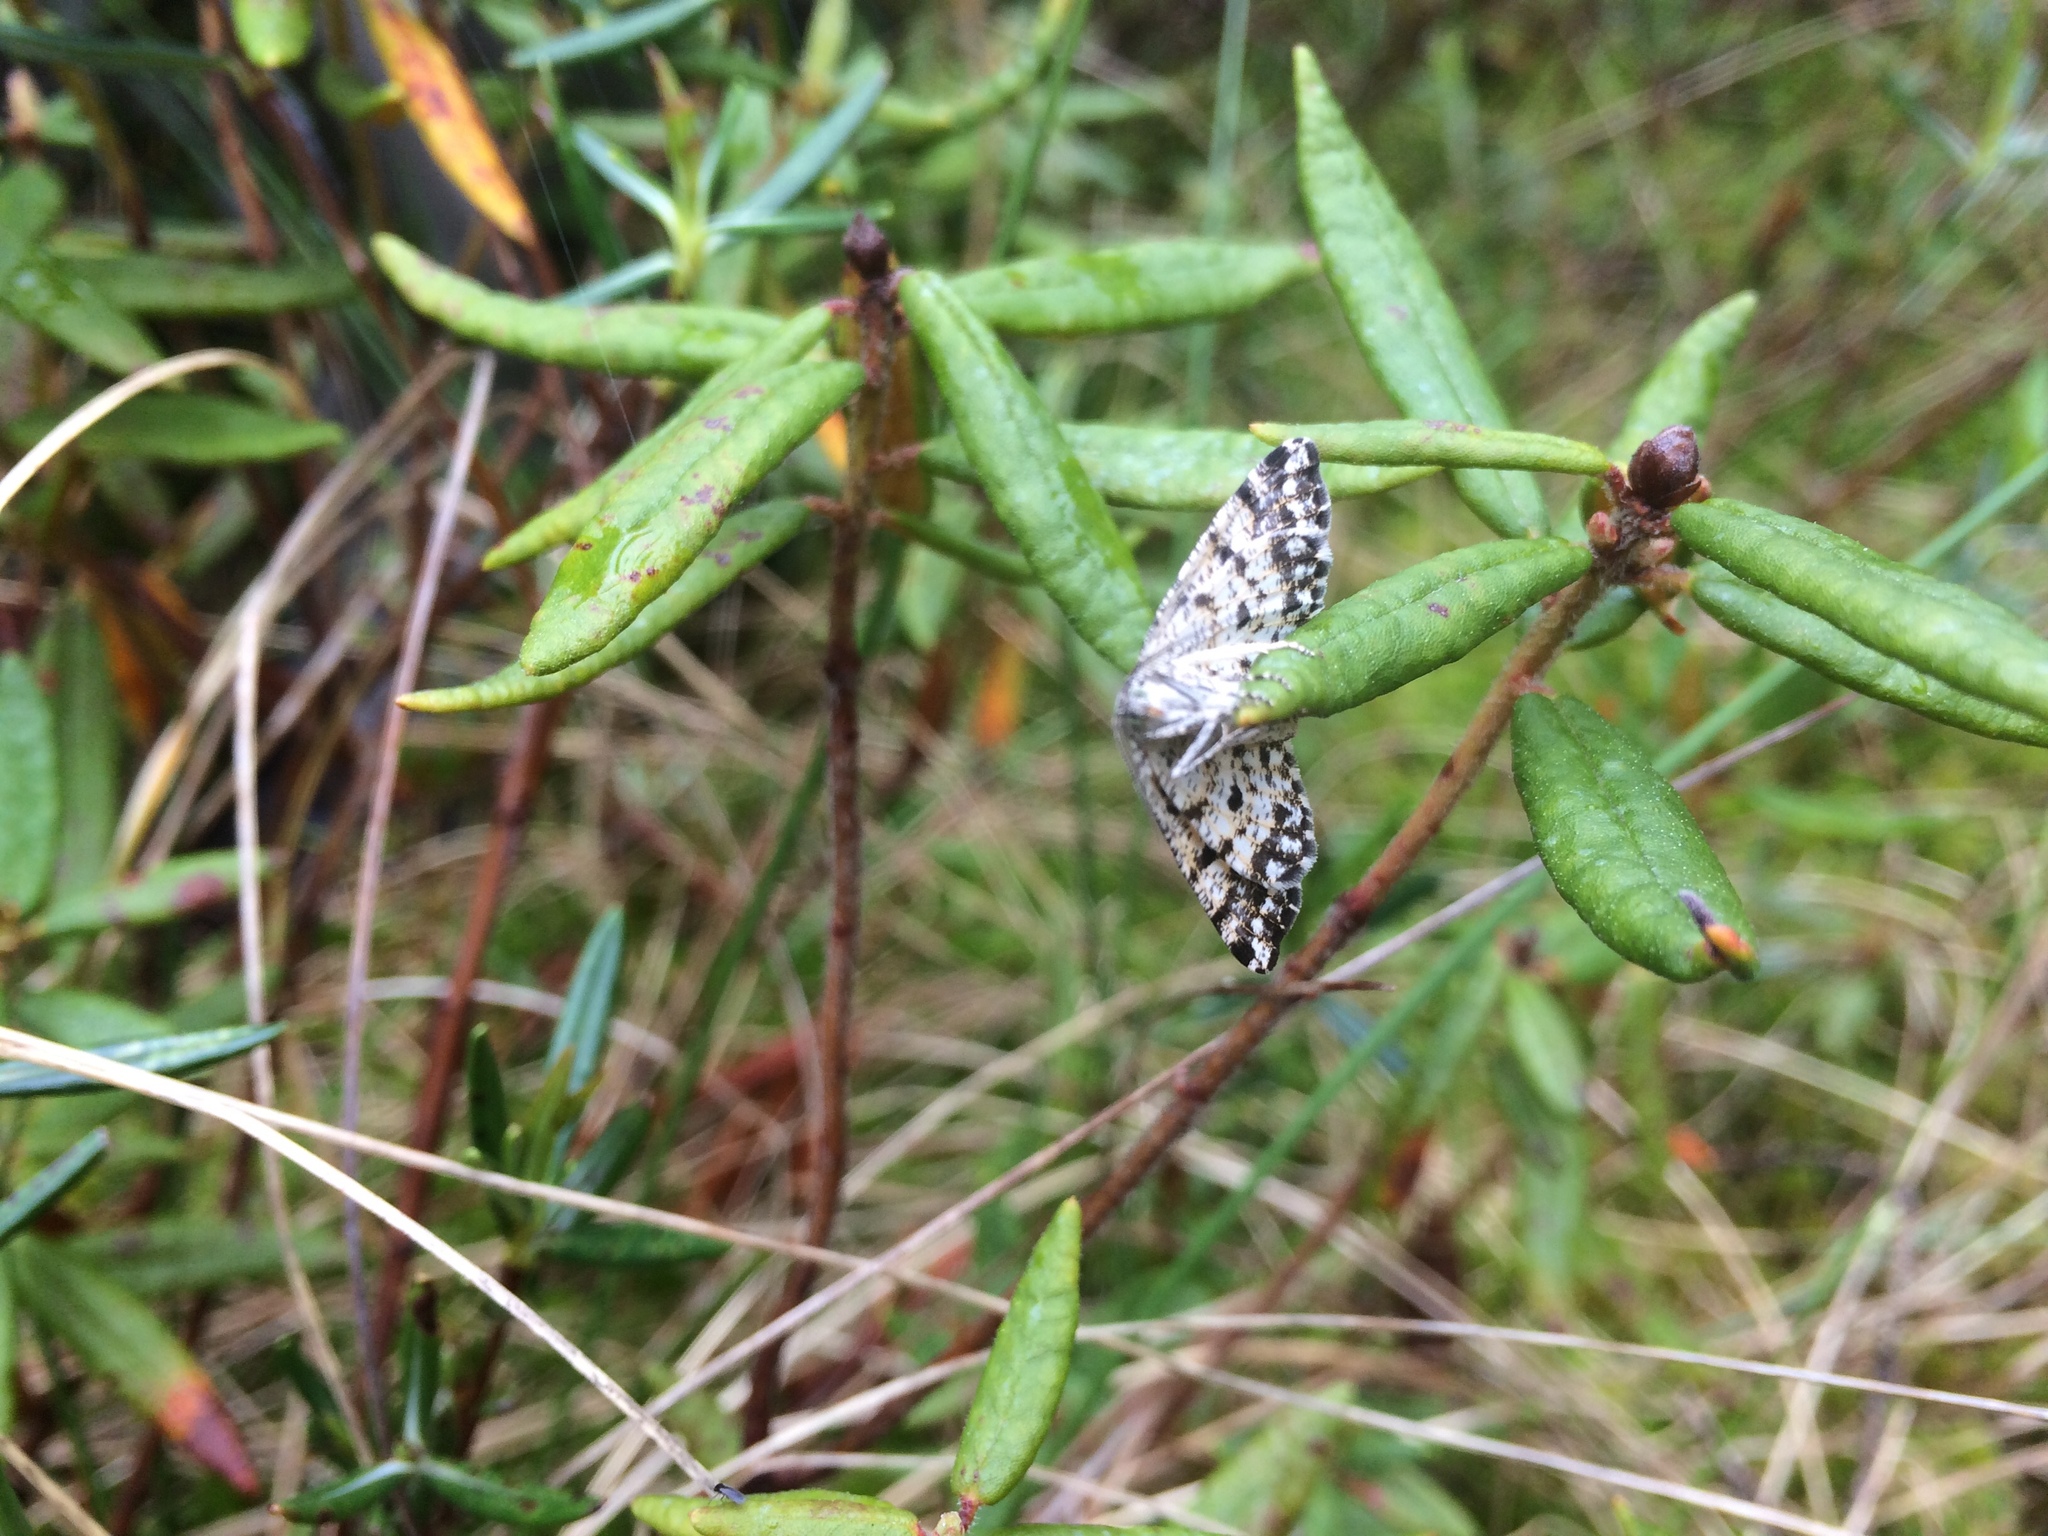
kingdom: Animalia
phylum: Arthropoda
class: Insecta
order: Lepidoptera
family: Geometridae
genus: Eufidonia
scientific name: Eufidonia notataria
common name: Powder moth
